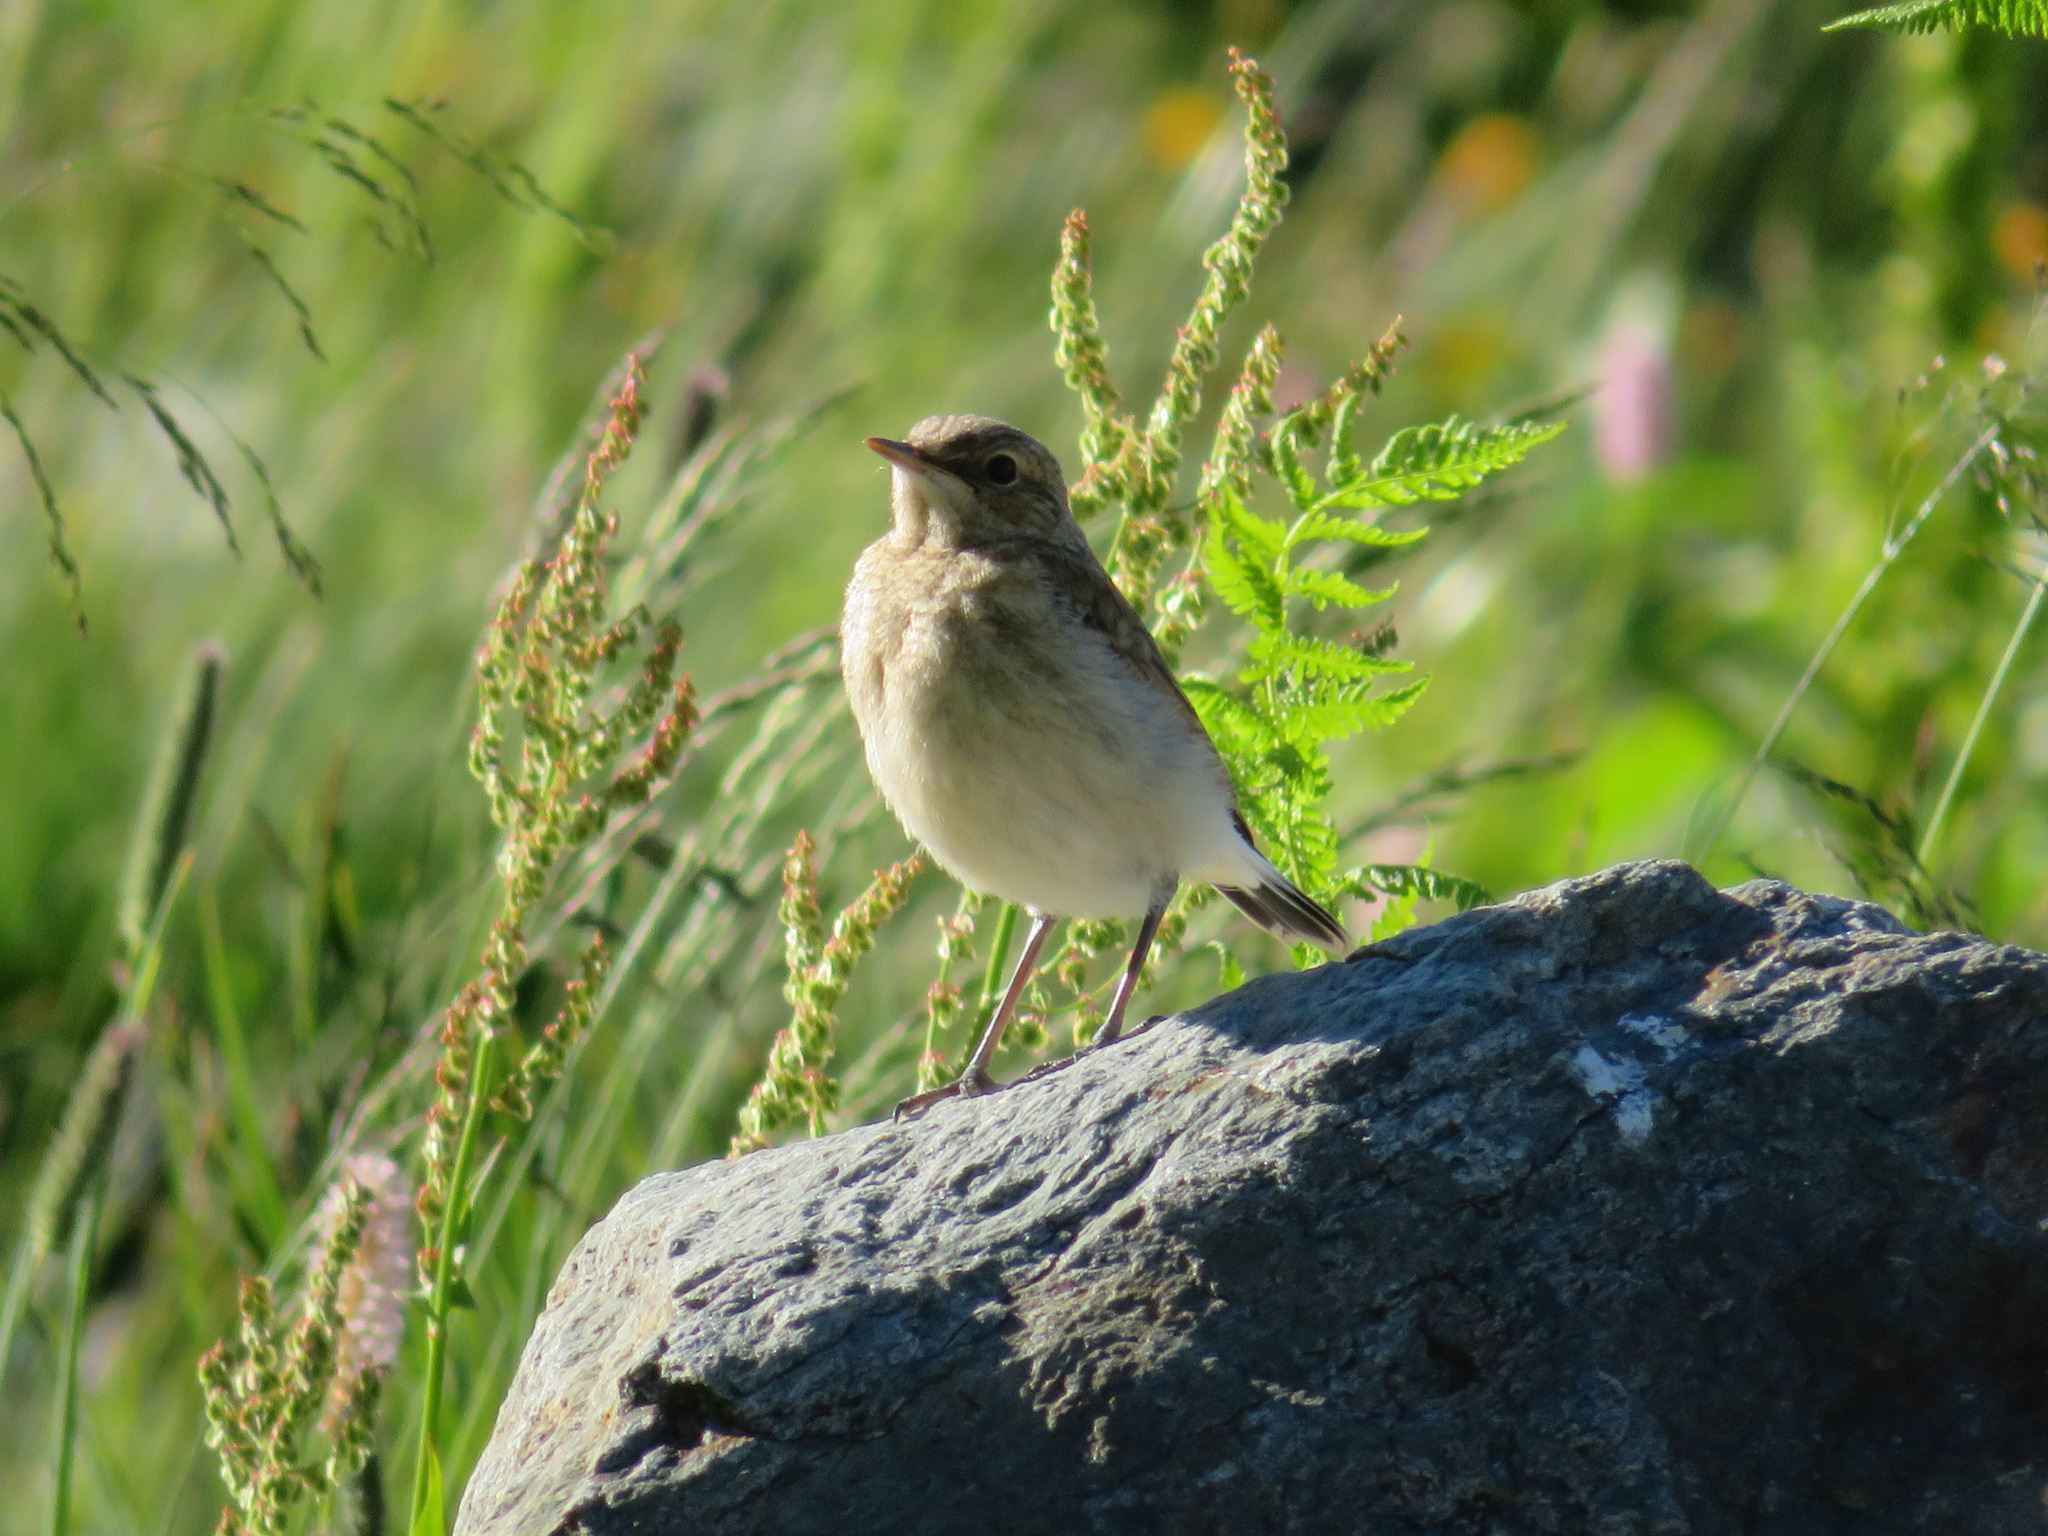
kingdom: Animalia
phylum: Chordata
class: Aves
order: Passeriformes
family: Muscicapidae
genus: Oenanthe
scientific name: Oenanthe oenanthe
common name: Northern wheatear
